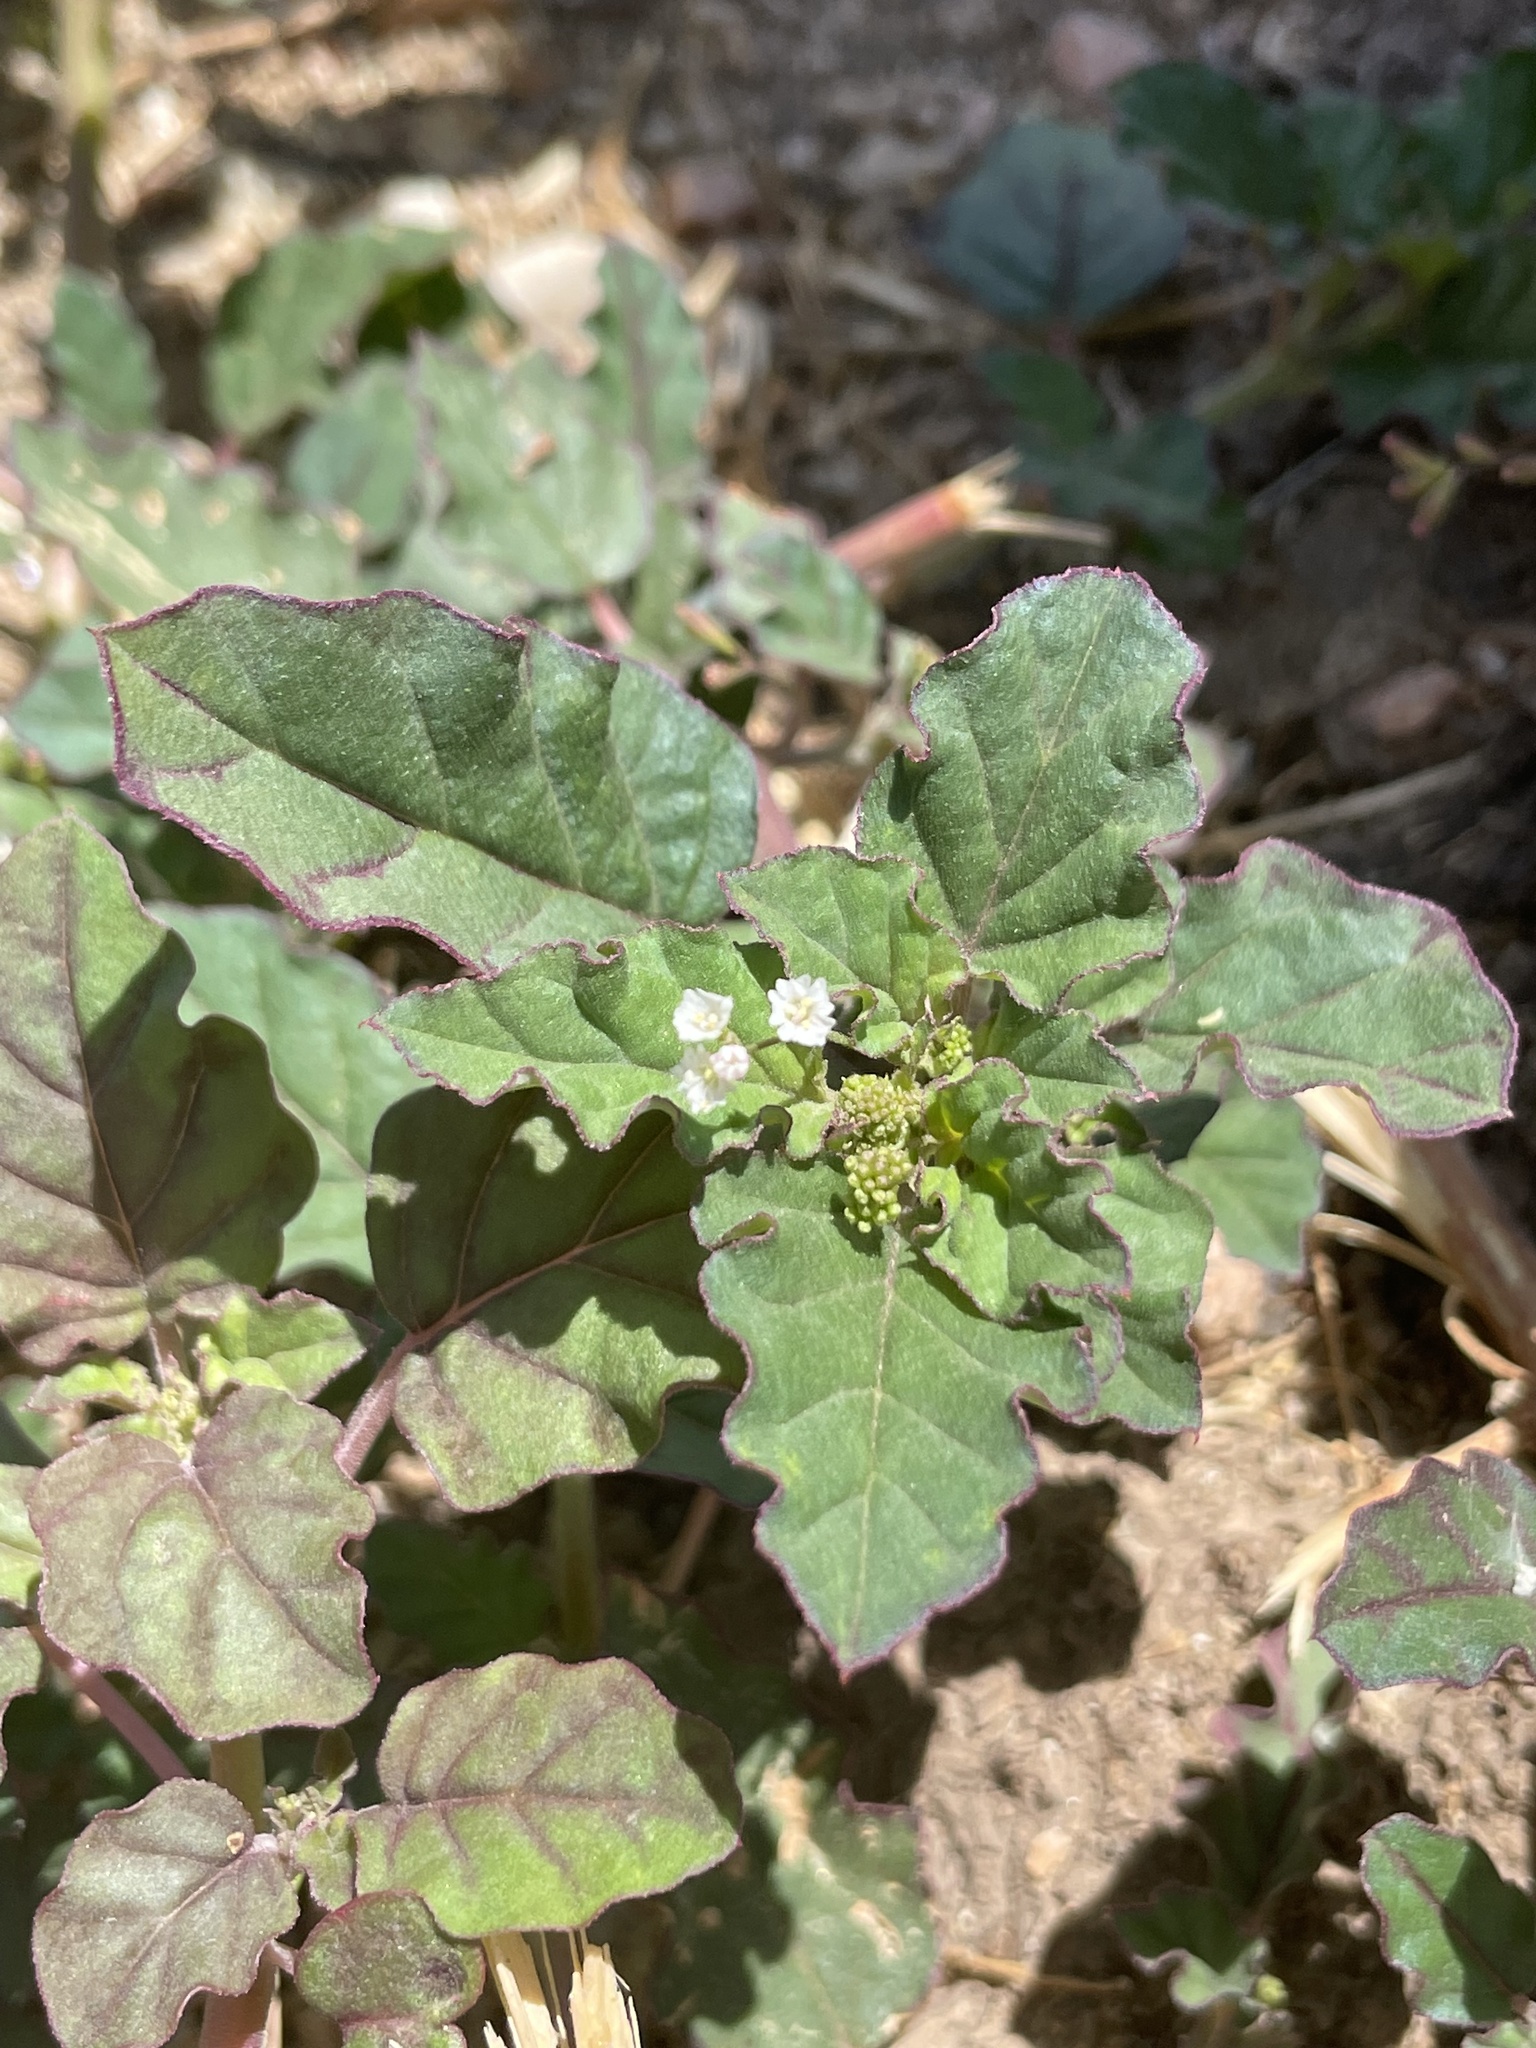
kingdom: Plantae
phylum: Tracheophyta
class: Magnoliopsida
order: Caryophyllales
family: Nyctaginaceae
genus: Boerhavia
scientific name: Boerhavia erecta
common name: Erect spiderling
